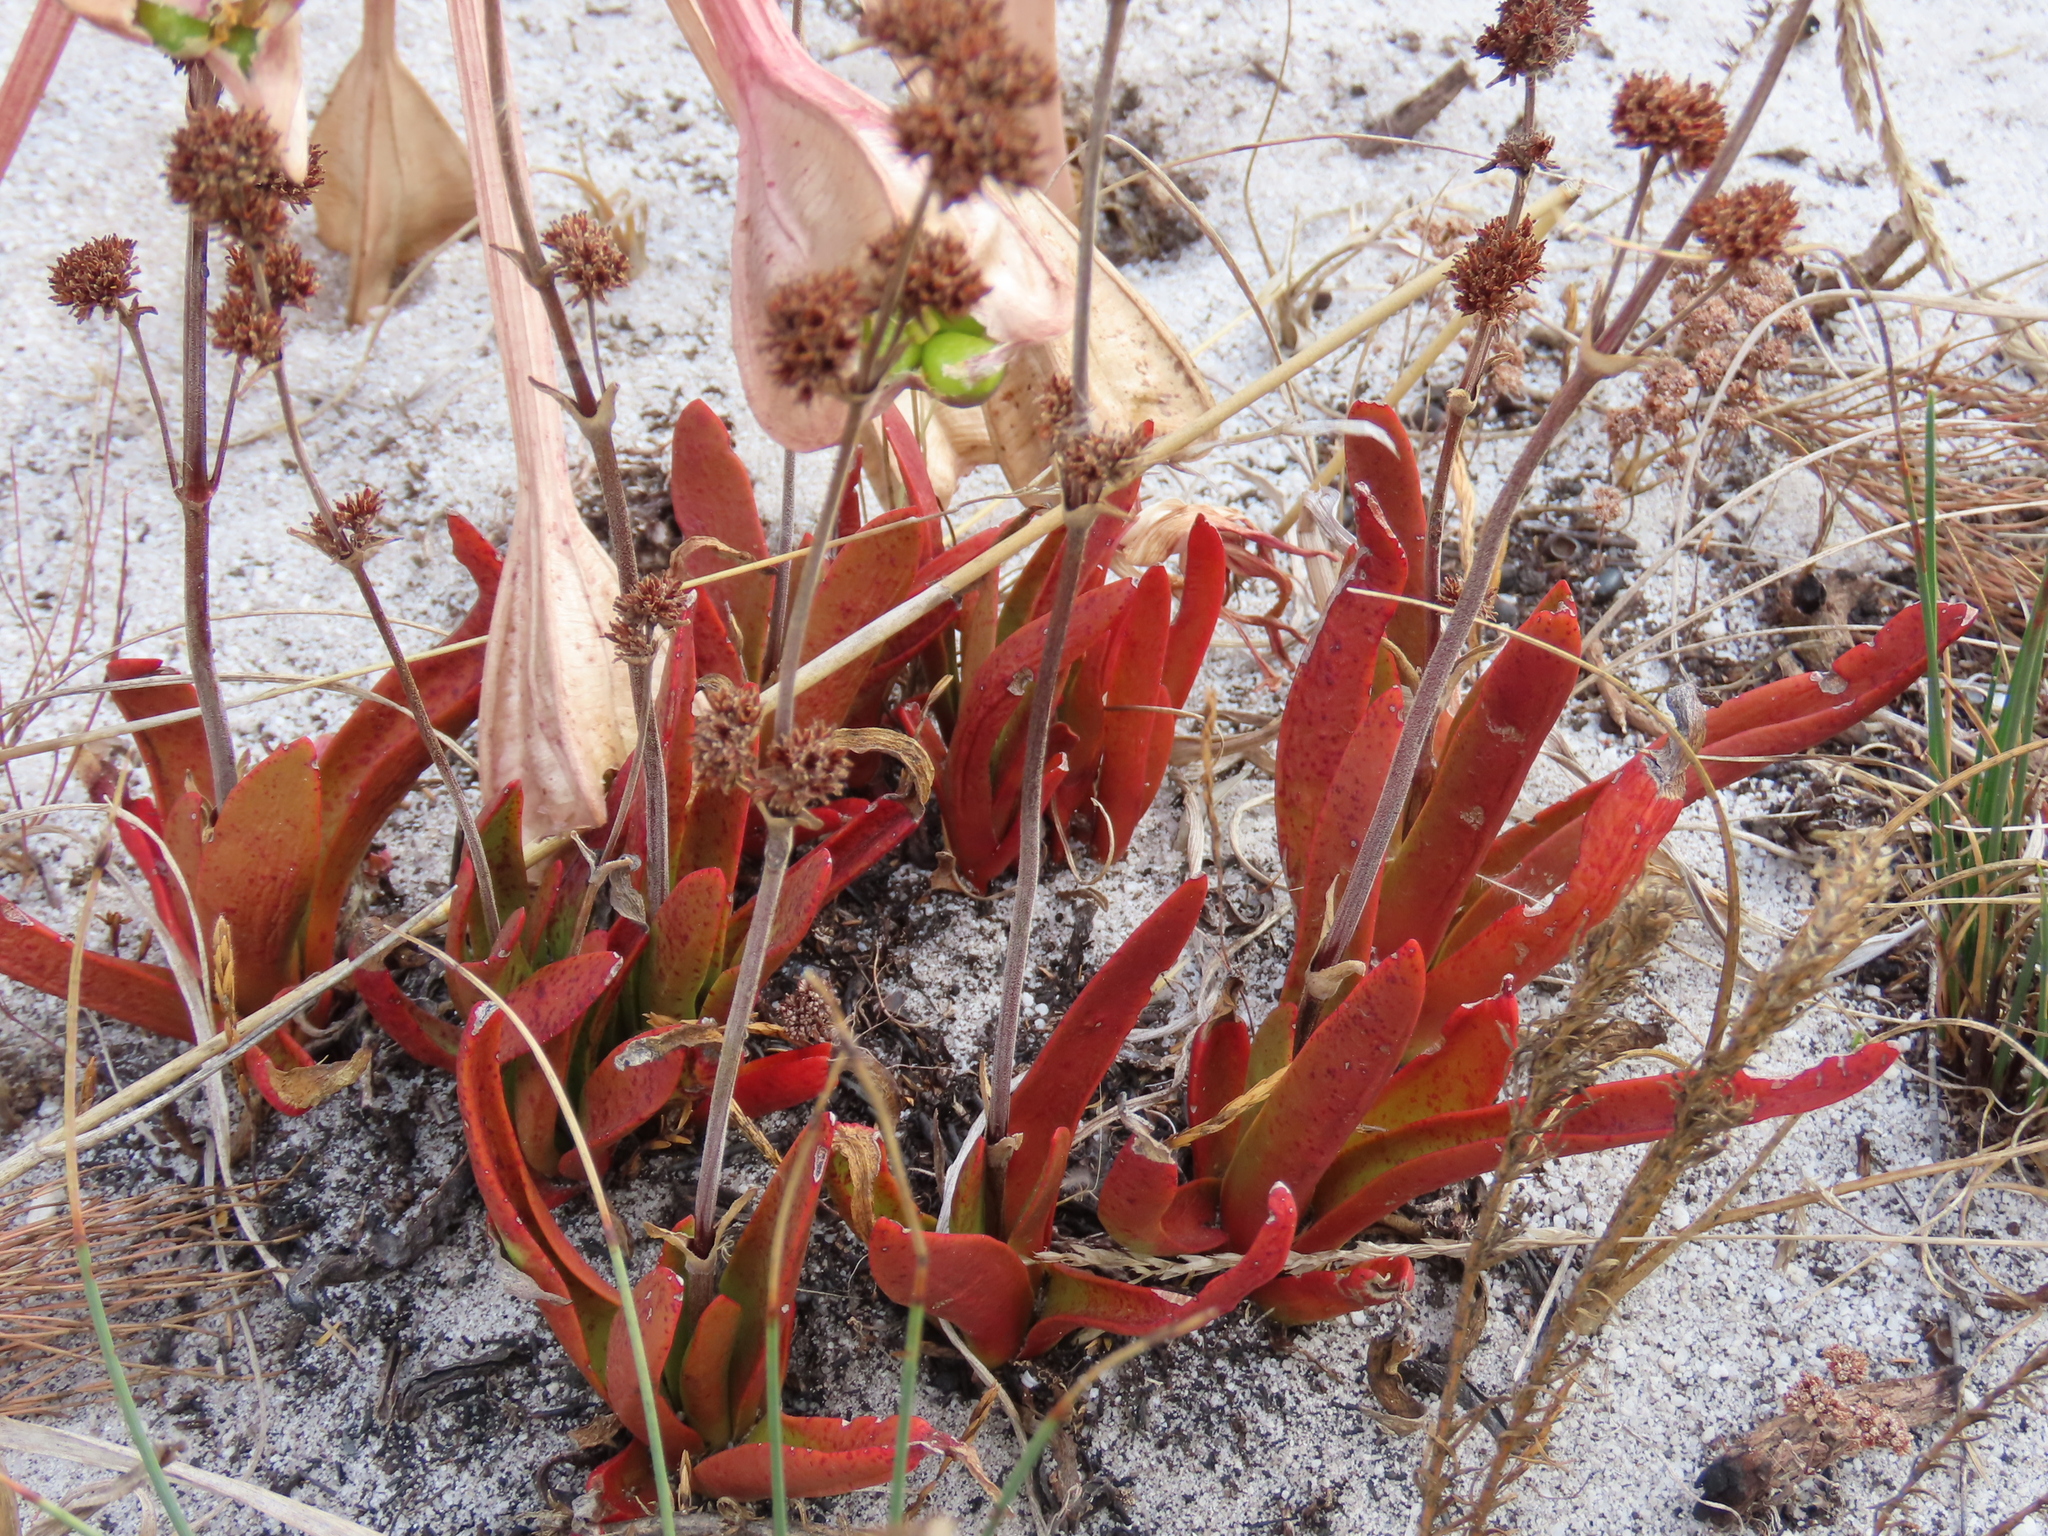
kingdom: Plantae
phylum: Tracheophyta
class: Magnoliopsida
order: Saxifragales
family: Crassulaceae
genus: Crassula
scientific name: Crassula nudicaulis
